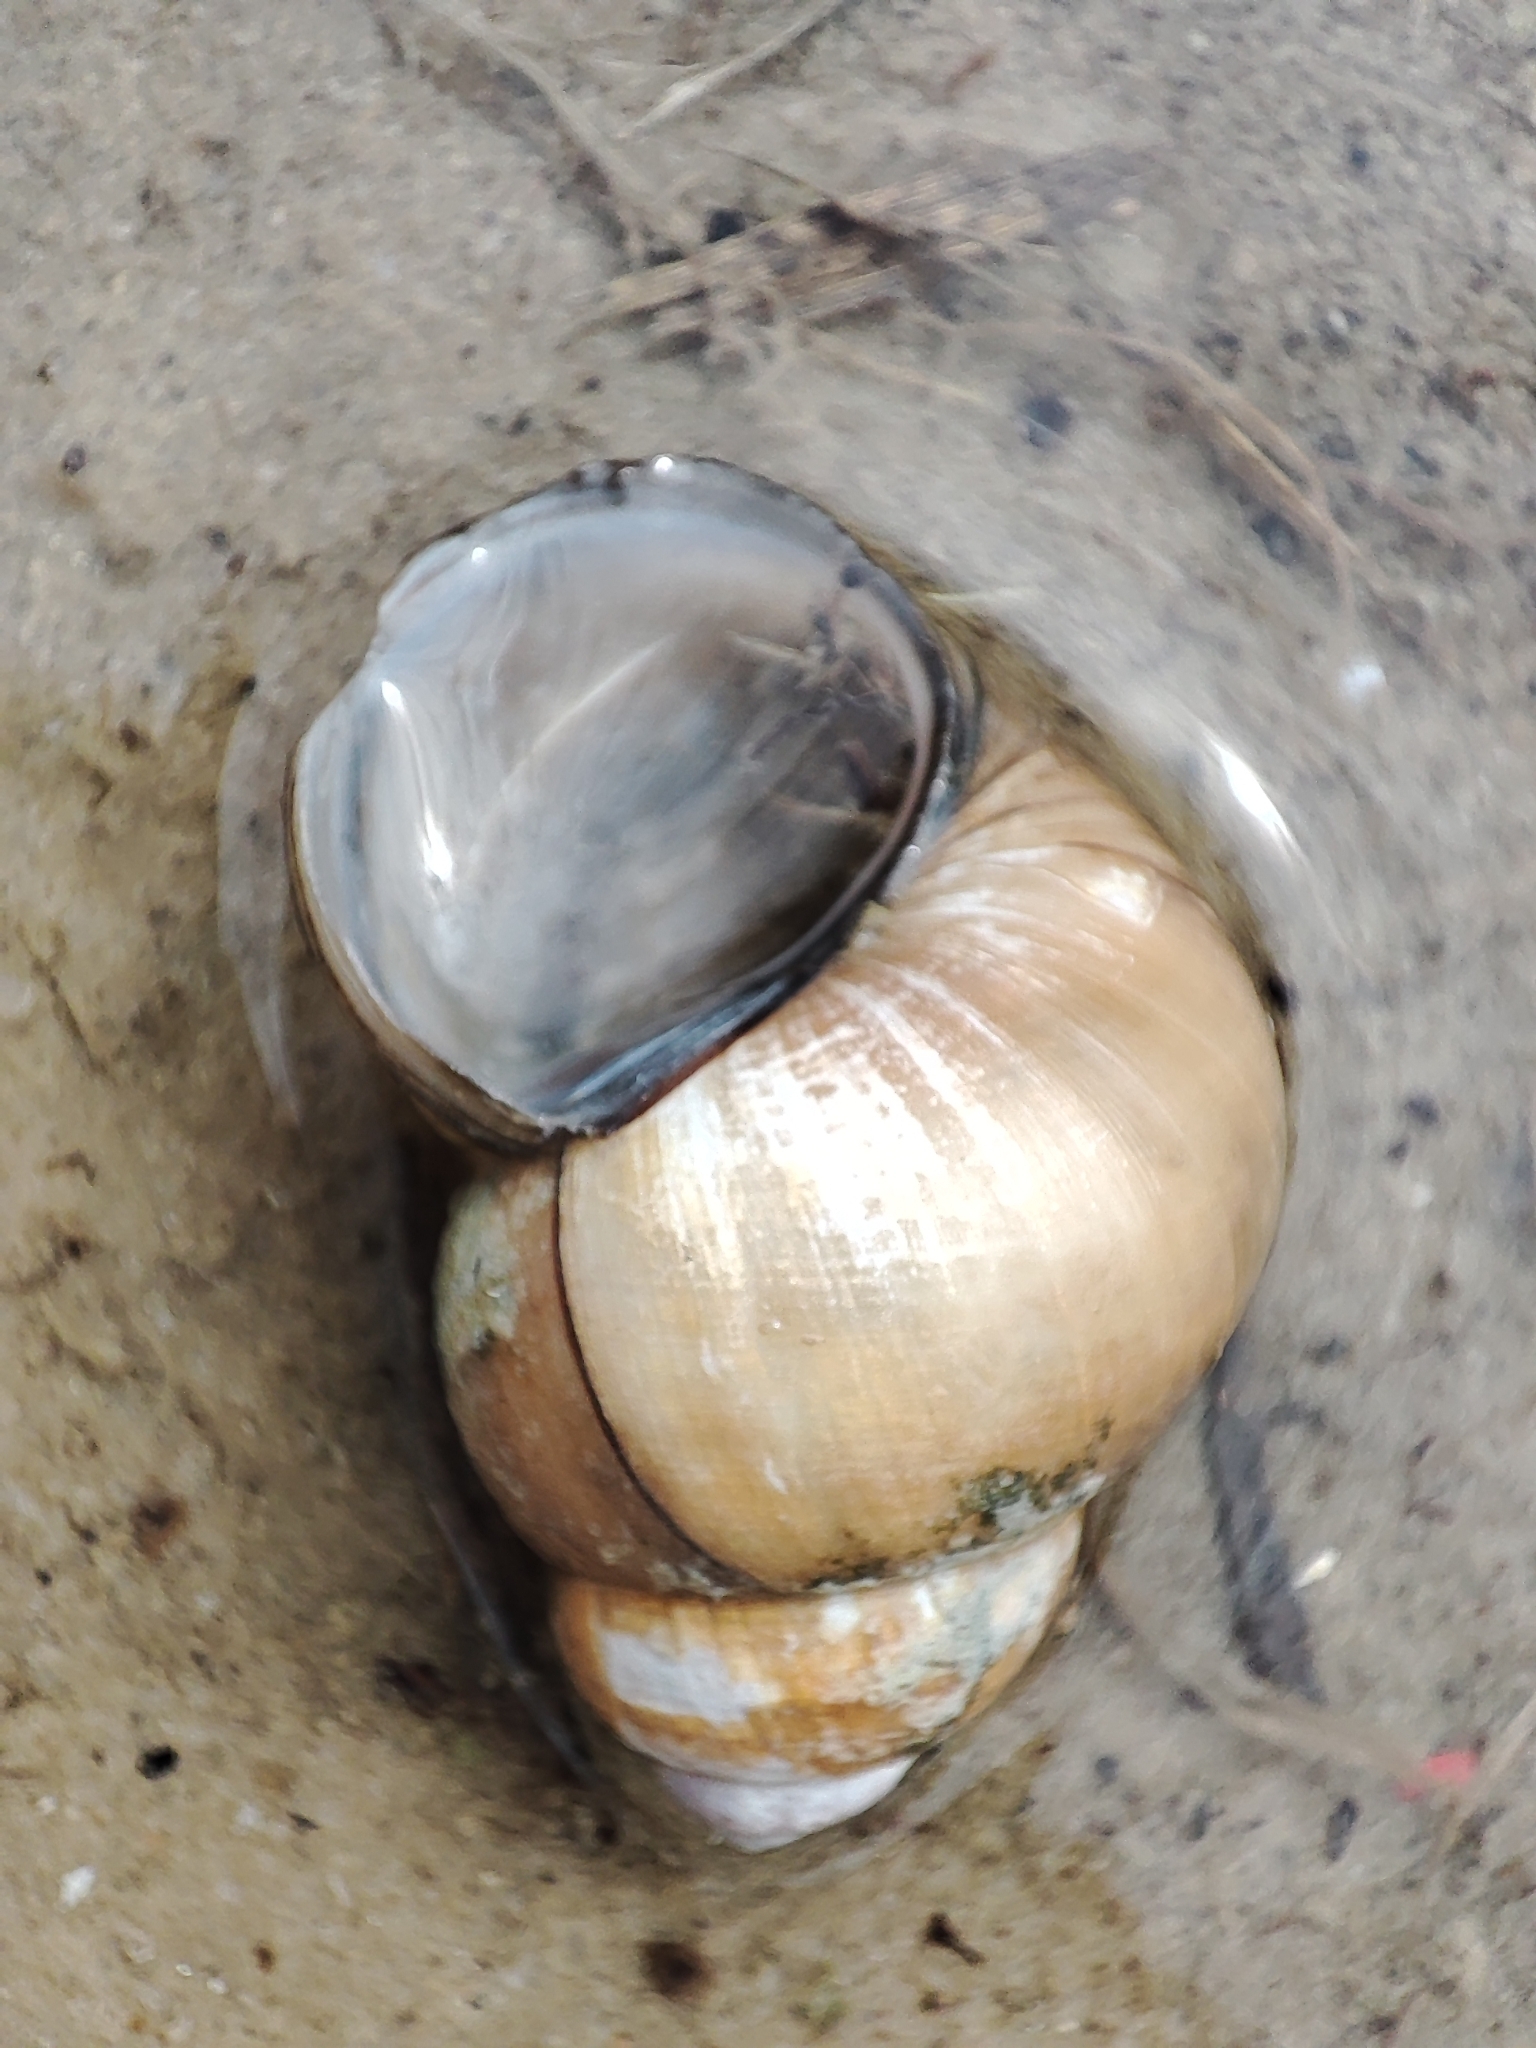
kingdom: Animalia
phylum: Mollusca
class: Gastropoda
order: Architaenioglossa
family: Viviparidae
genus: Viviparus
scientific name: Viviparus viviparus
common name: River snail
